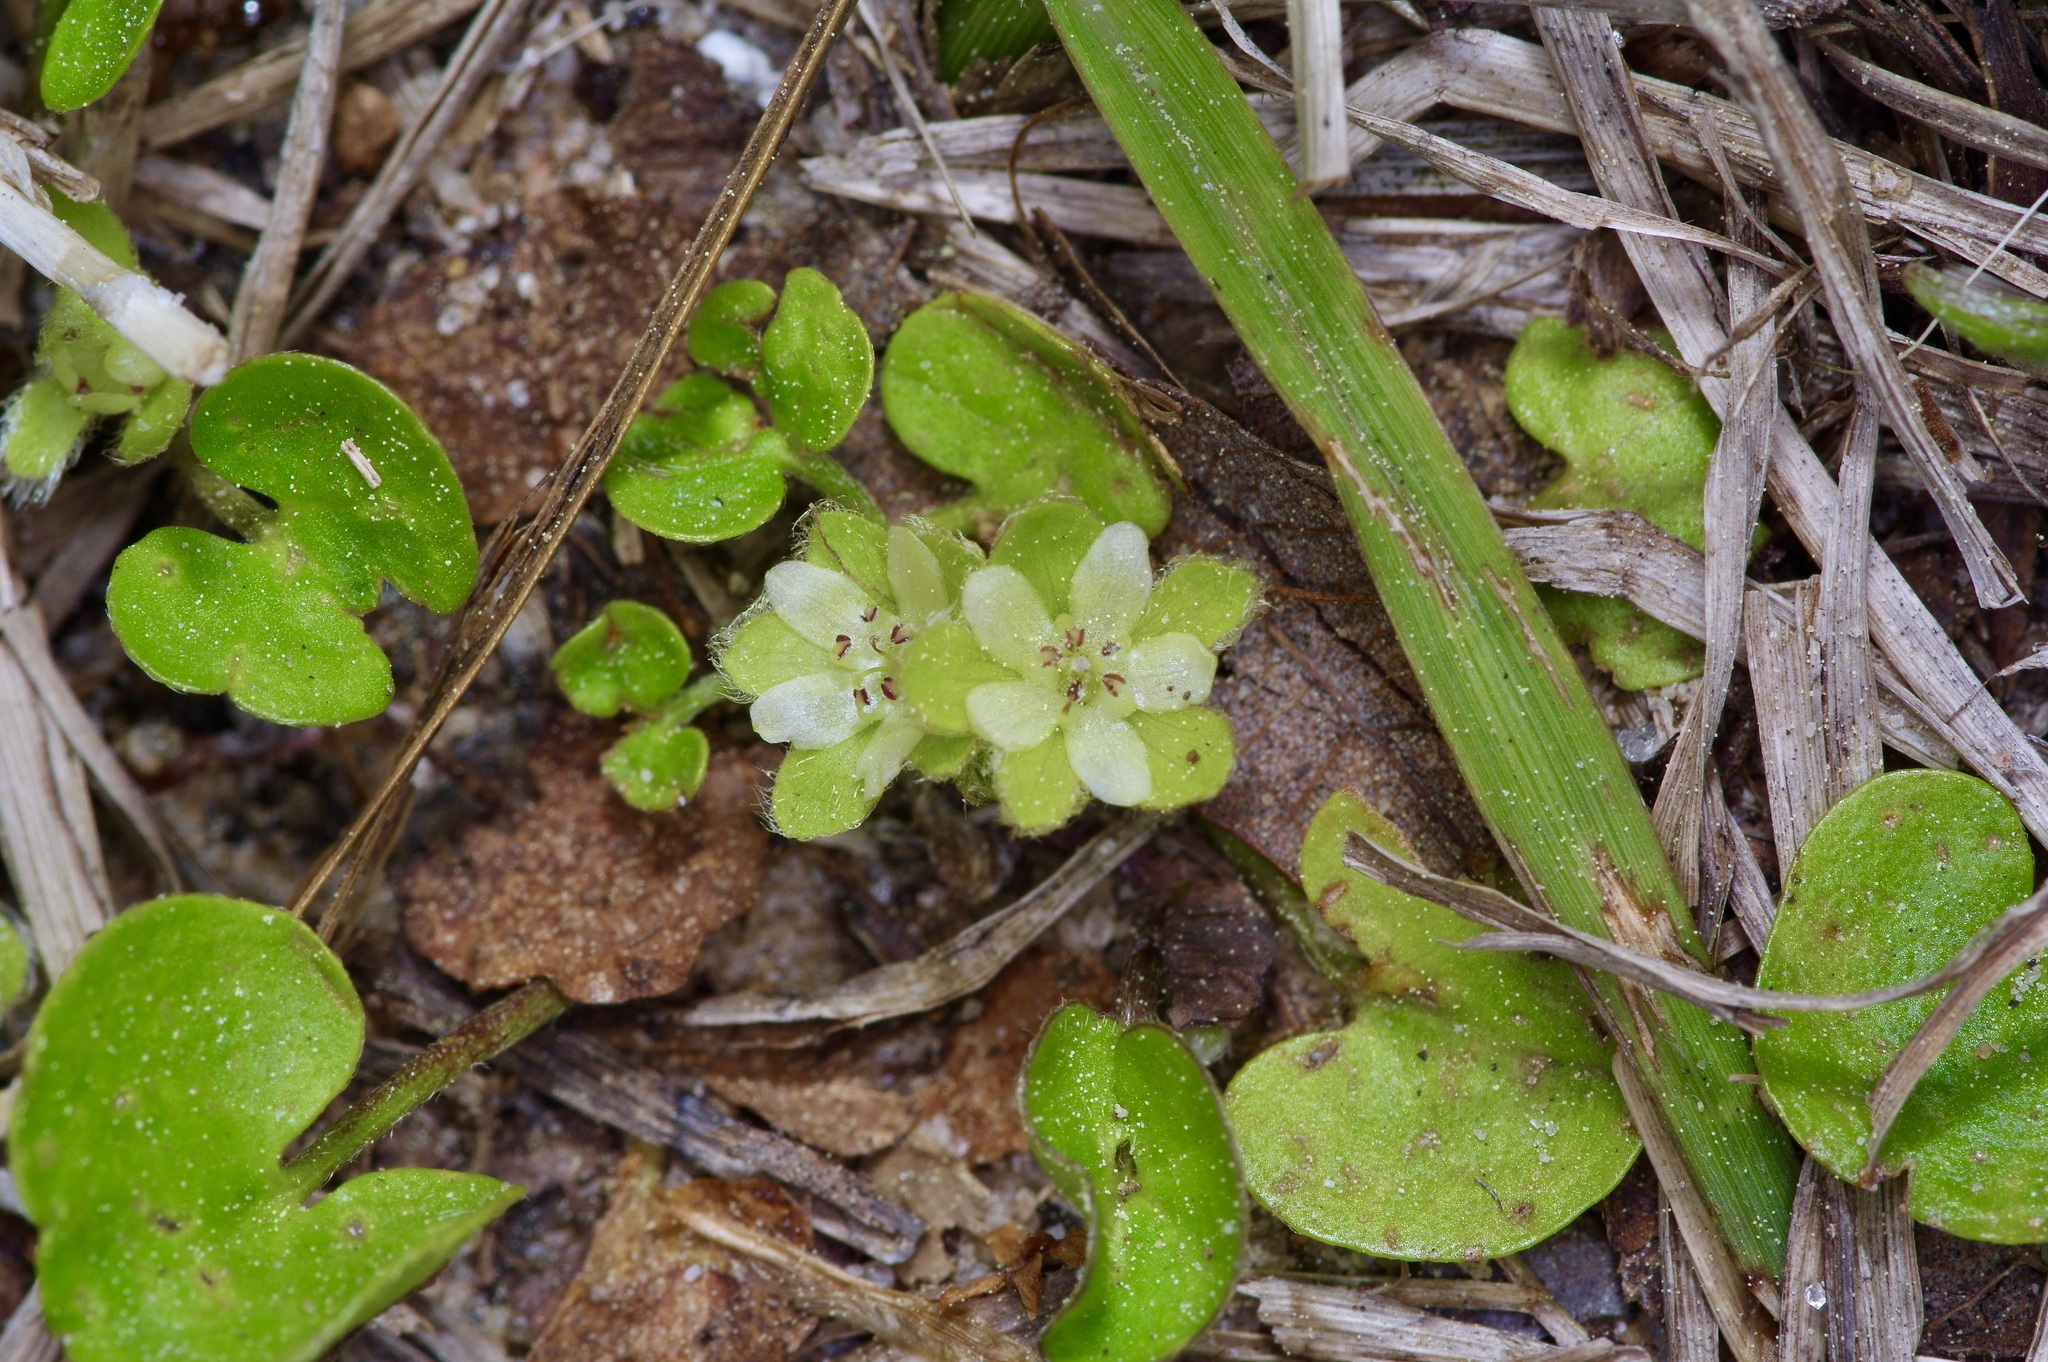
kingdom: Plantae
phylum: Tracheophyta
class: Magnoliopsida
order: Solanales
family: Convolvulaceae
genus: Dichondra
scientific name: Dichondra carolinensis
